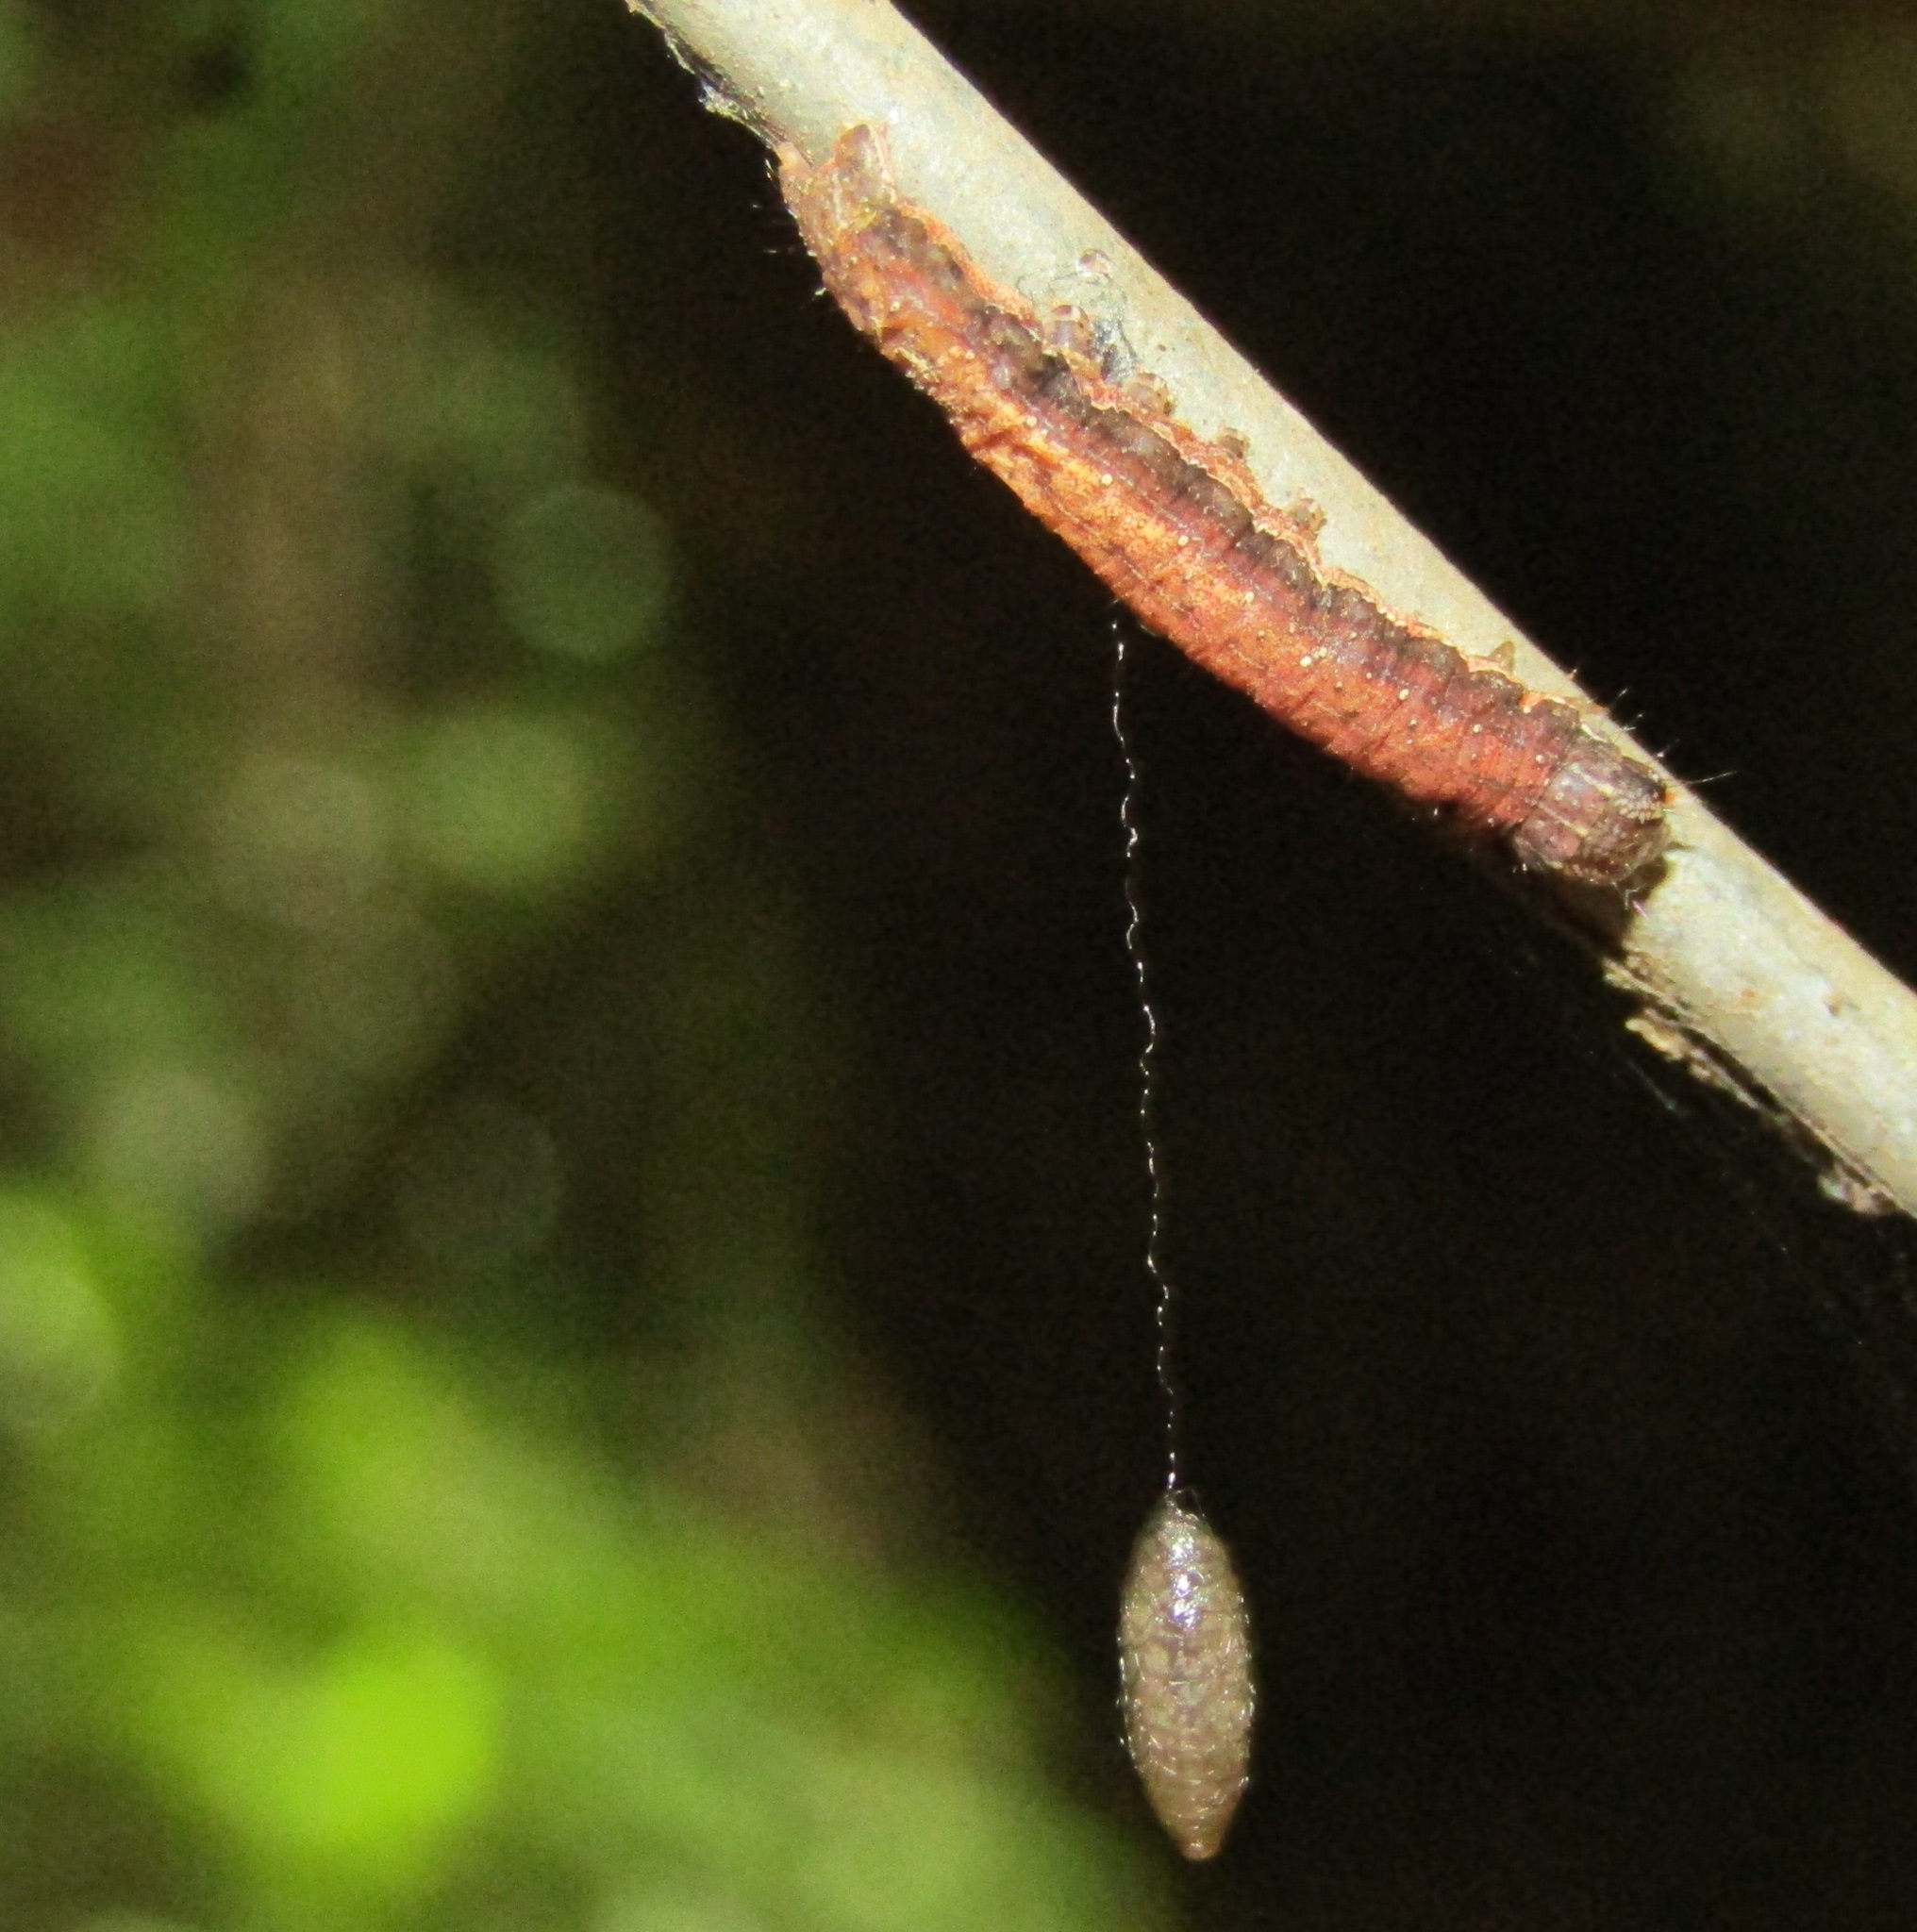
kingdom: Animalia
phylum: Arthropoda
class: Insecta
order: Hymenoptera
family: Braconidae
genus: Meteorus
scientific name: Meteorus pulchricornis
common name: Braconid wasp
